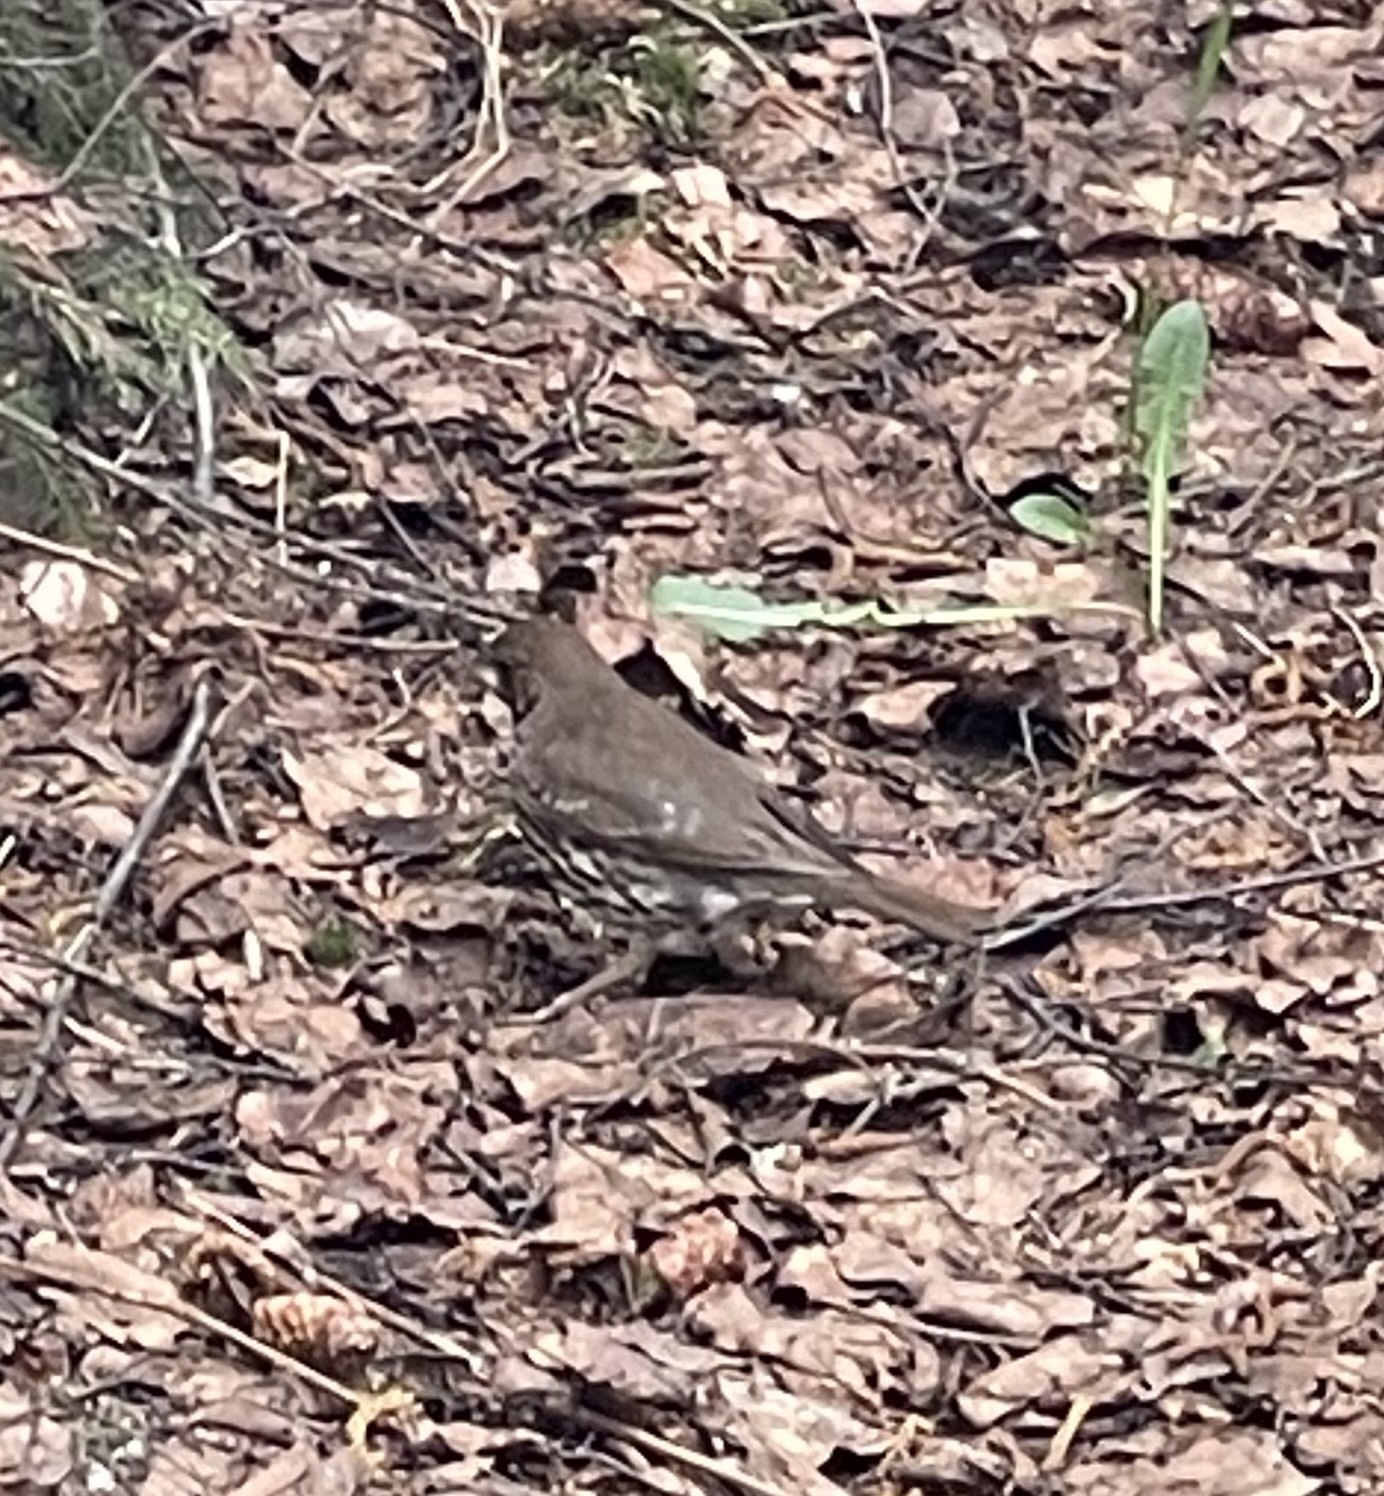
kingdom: Animalia
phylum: Chordata
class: Aves
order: Passeriformes
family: Turdidae
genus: Turdus
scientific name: Turdus philomelos
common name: Song thrush
